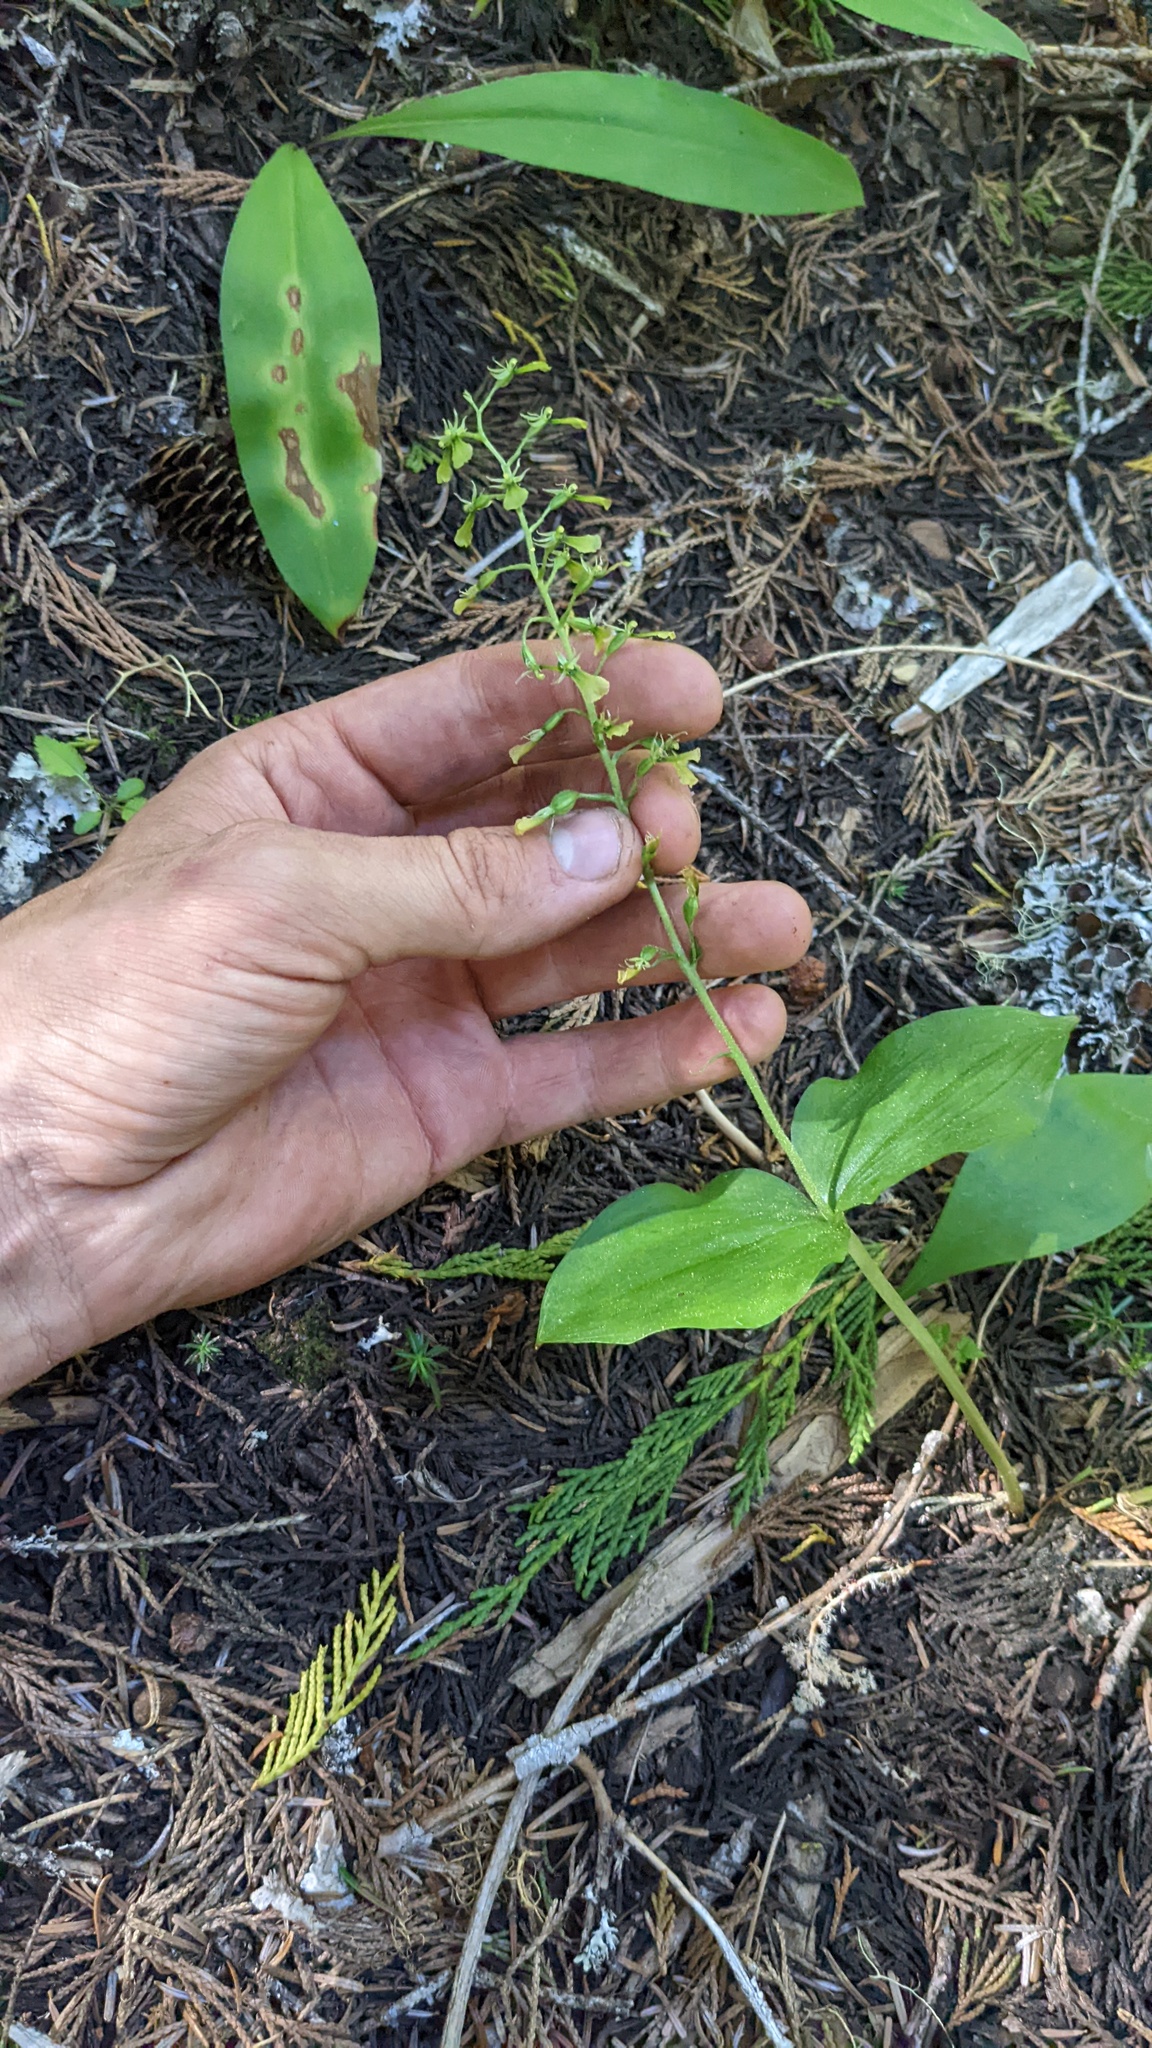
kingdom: Plantae
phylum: Tracheophyta
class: Liliopsida
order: Asparagales
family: Orchidaceae
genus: Neottia
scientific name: Neottia banksiana
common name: Northwestern twayblade
